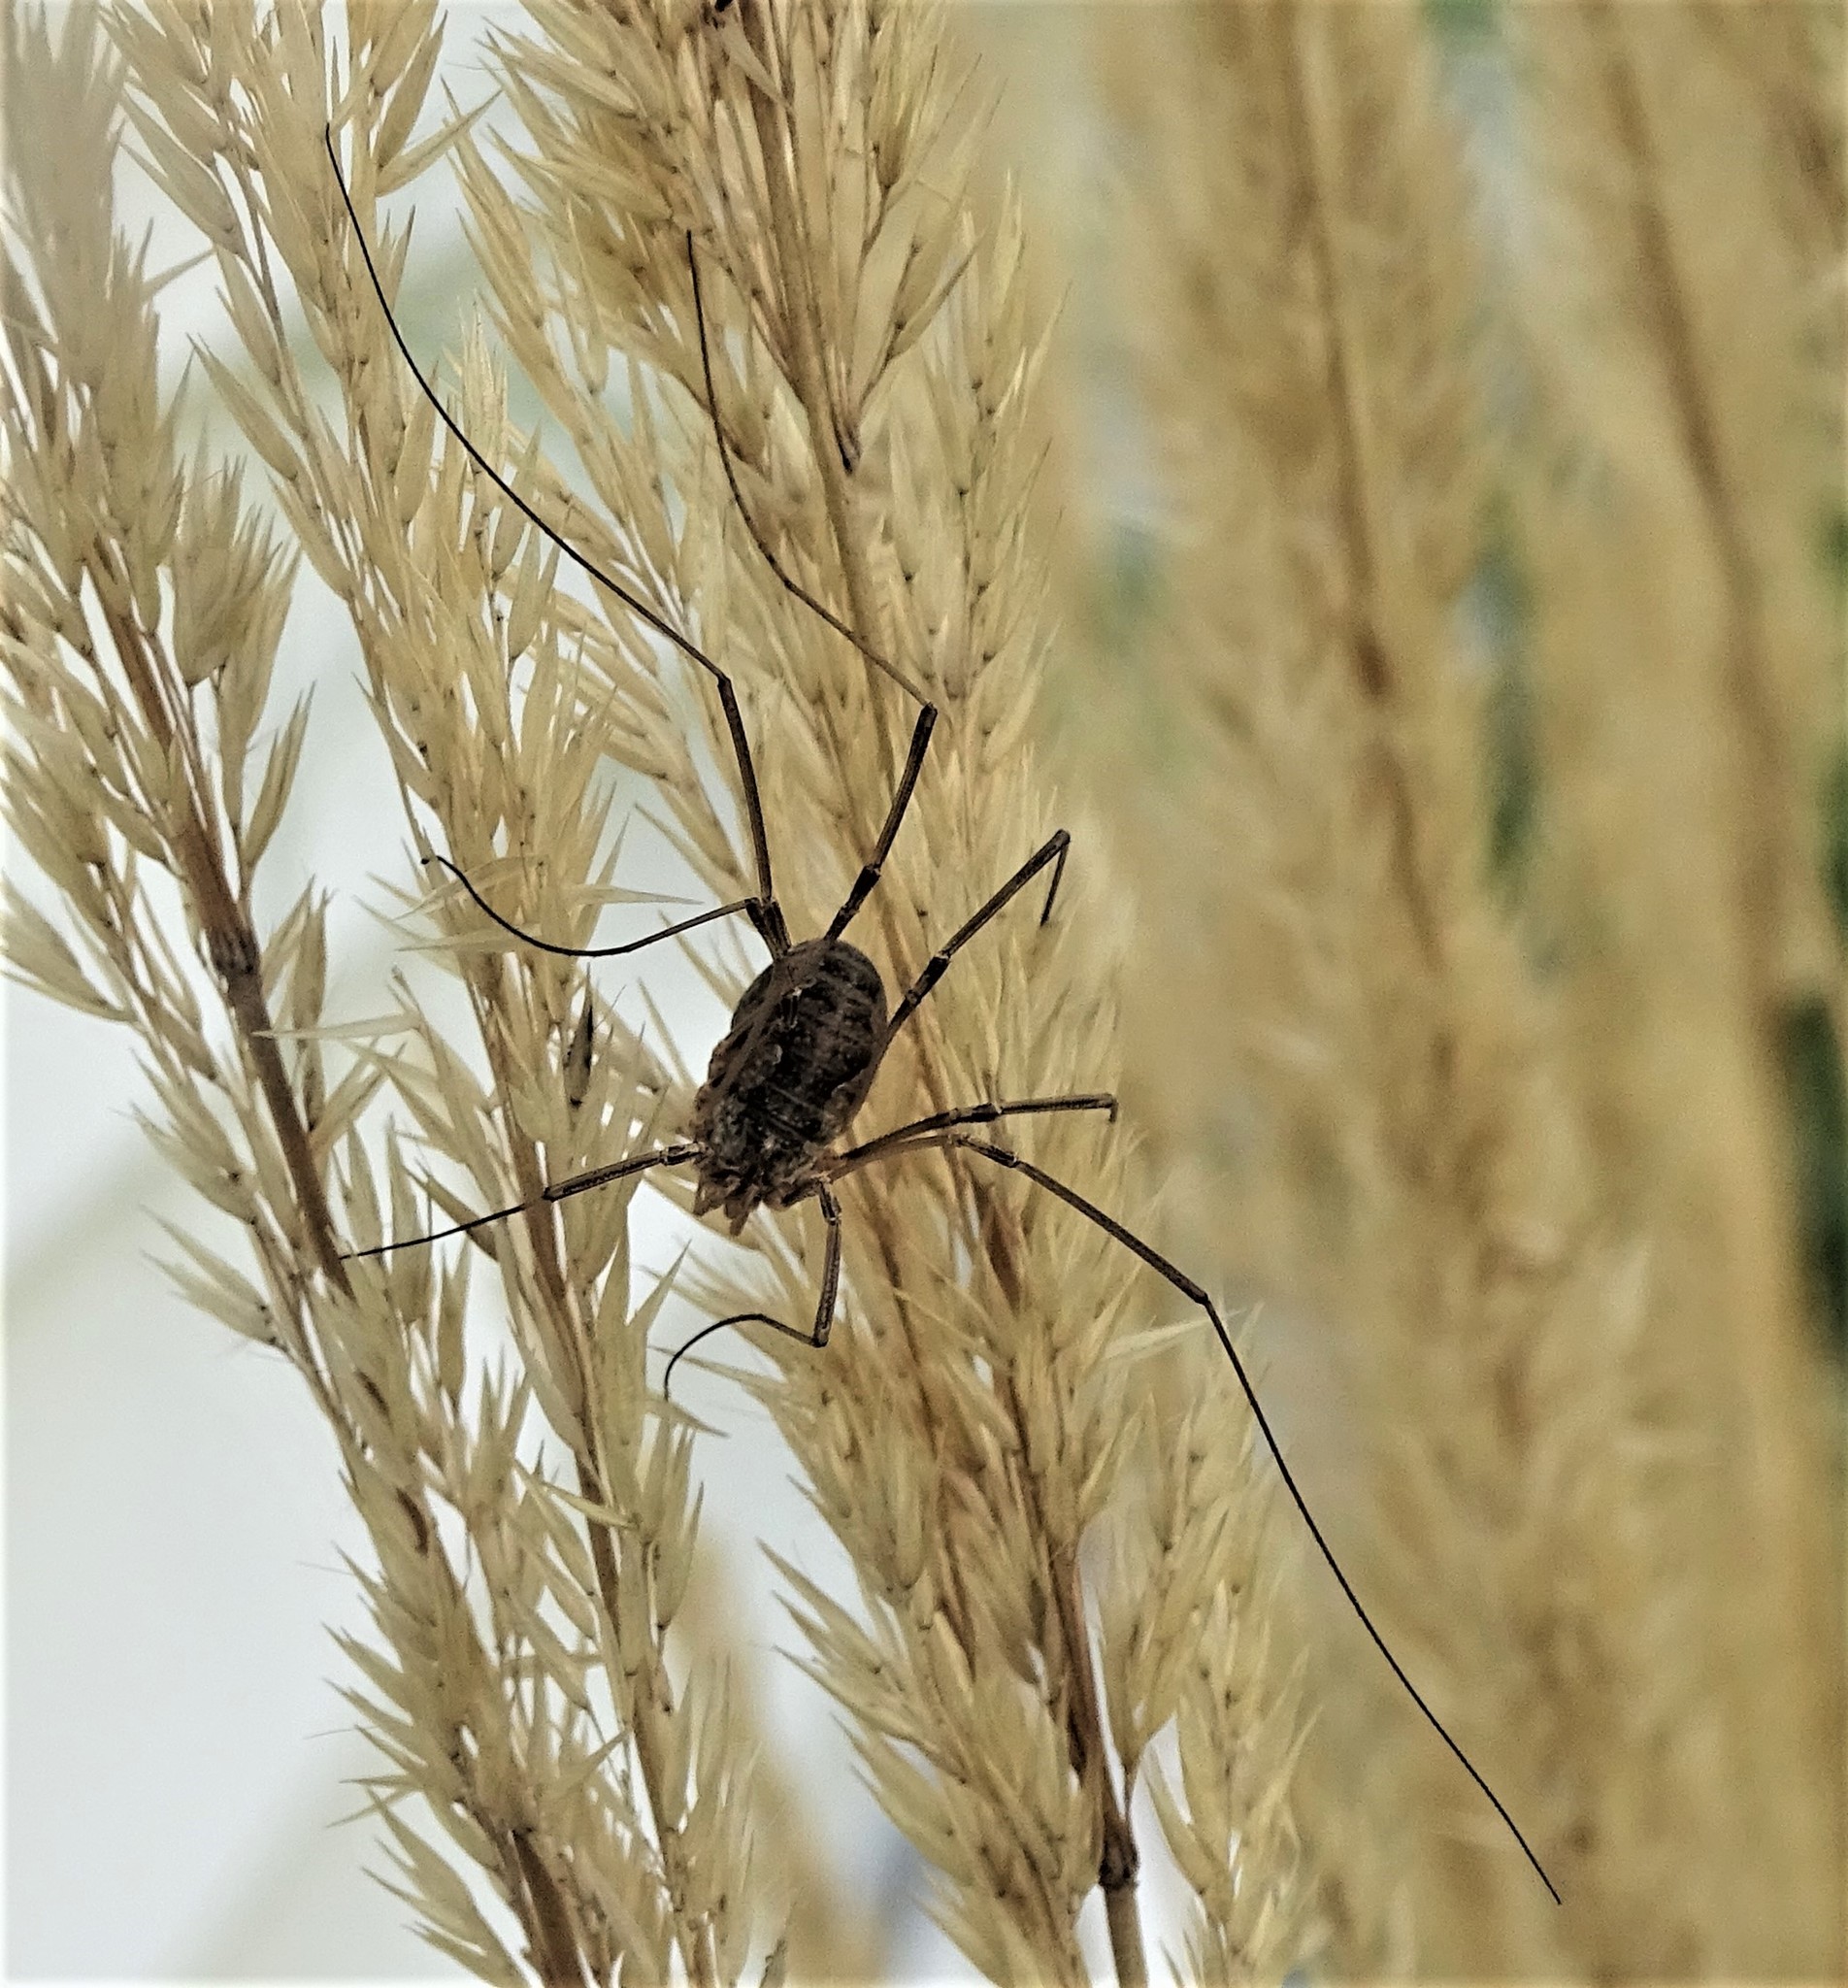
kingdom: Animalia
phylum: Arthropoda
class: Arachnida
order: Opiliones
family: Phalangiidae
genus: Phalangium
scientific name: Phalangium opilio
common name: Daddy longleg
